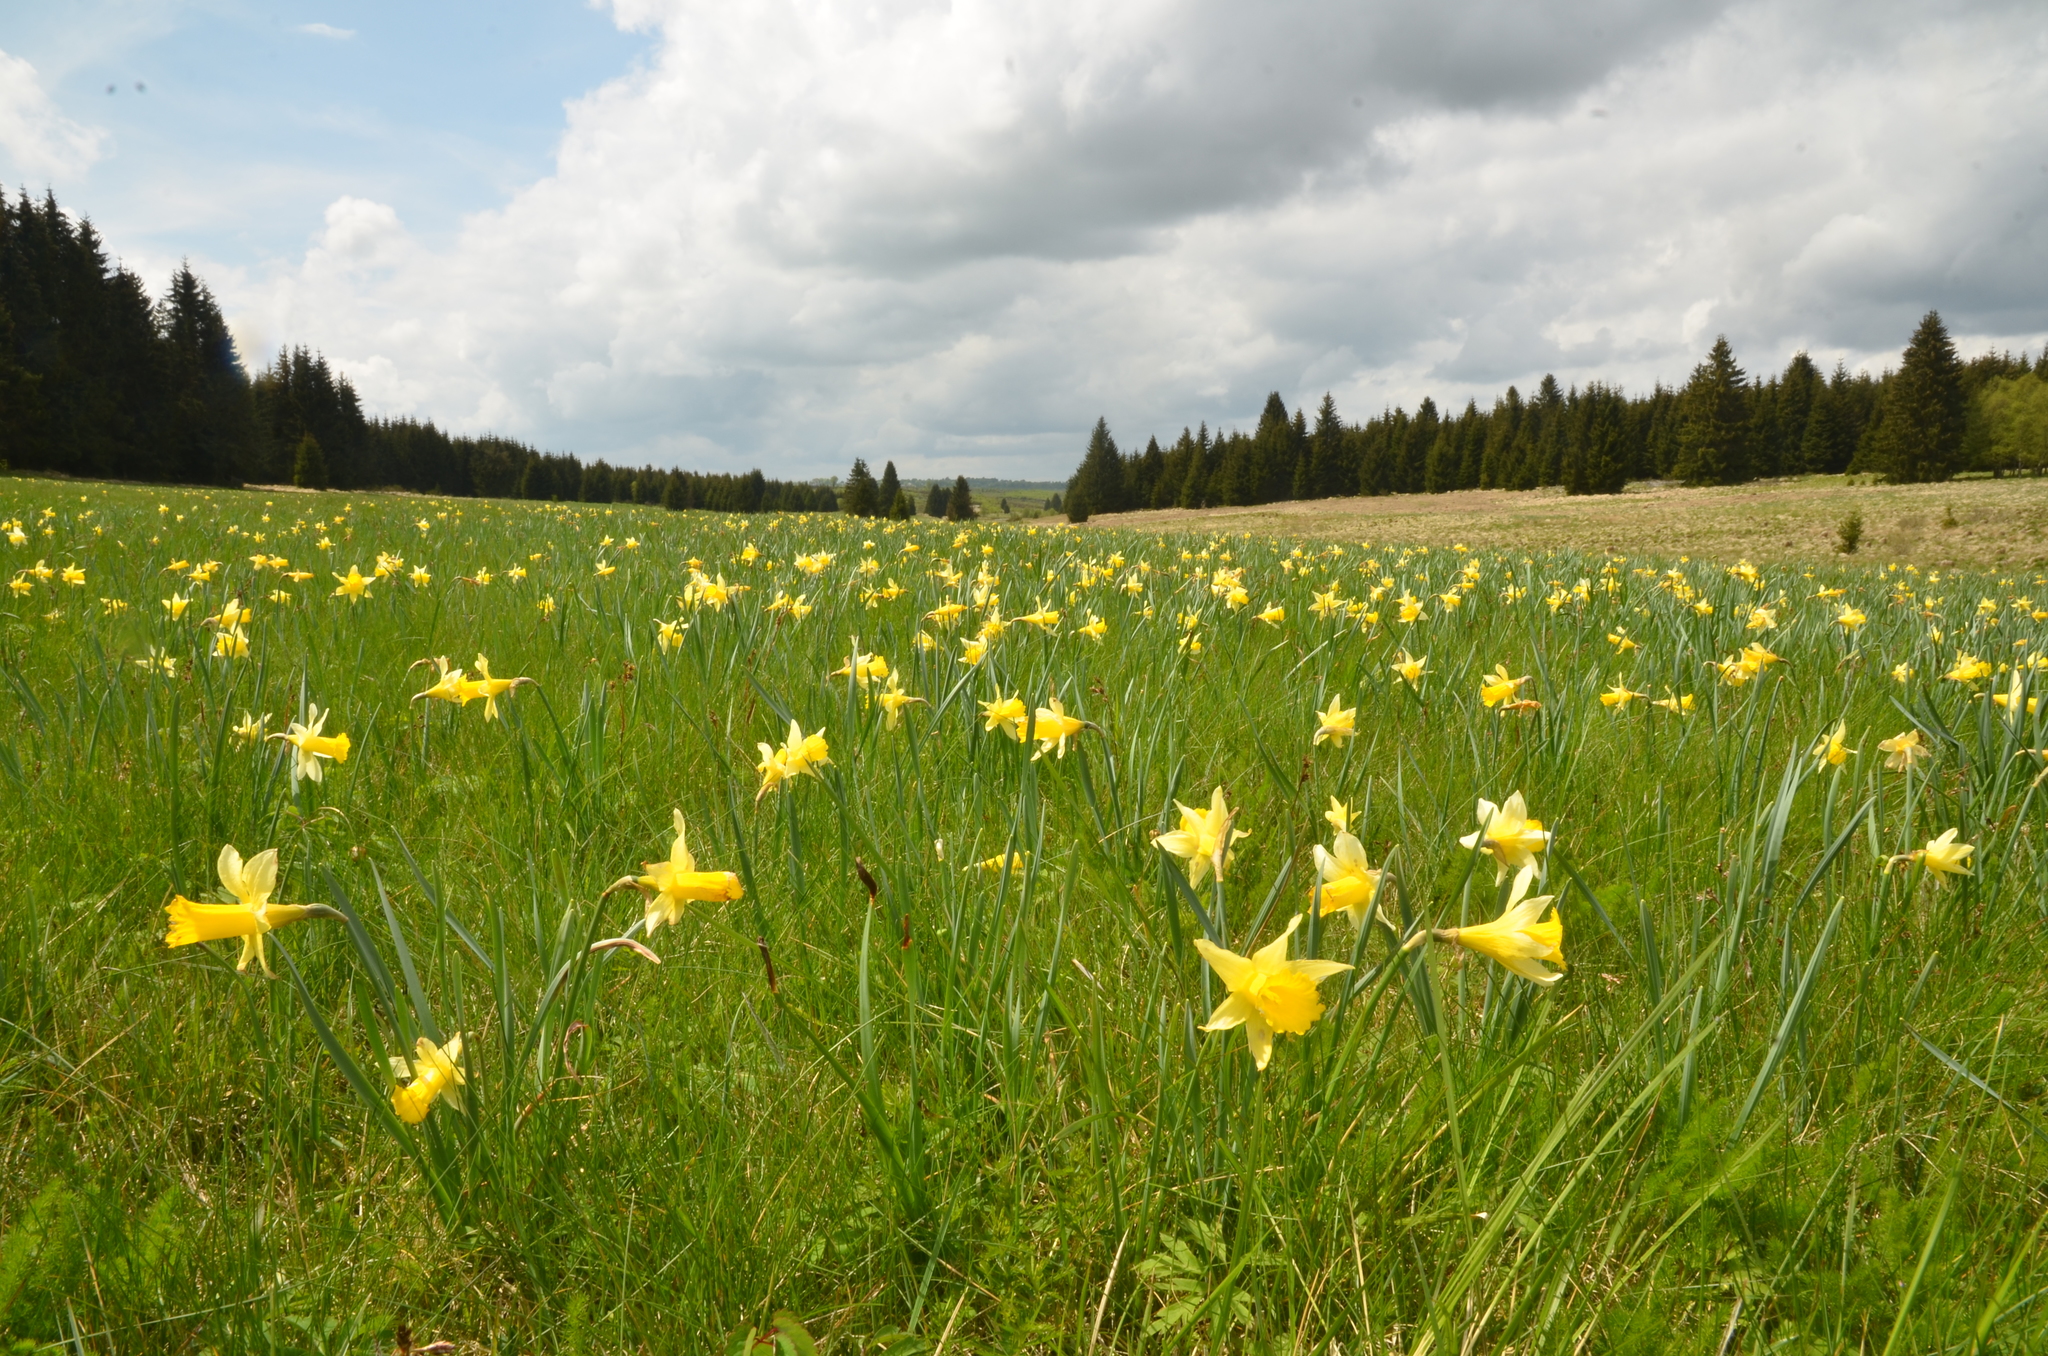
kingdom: Plantae
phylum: Tracheophyta
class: Liliopsida
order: Asparagales
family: Amaryllidaceae
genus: Narcissus
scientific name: Narcissus pseudonarcissus
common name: Daffodil
